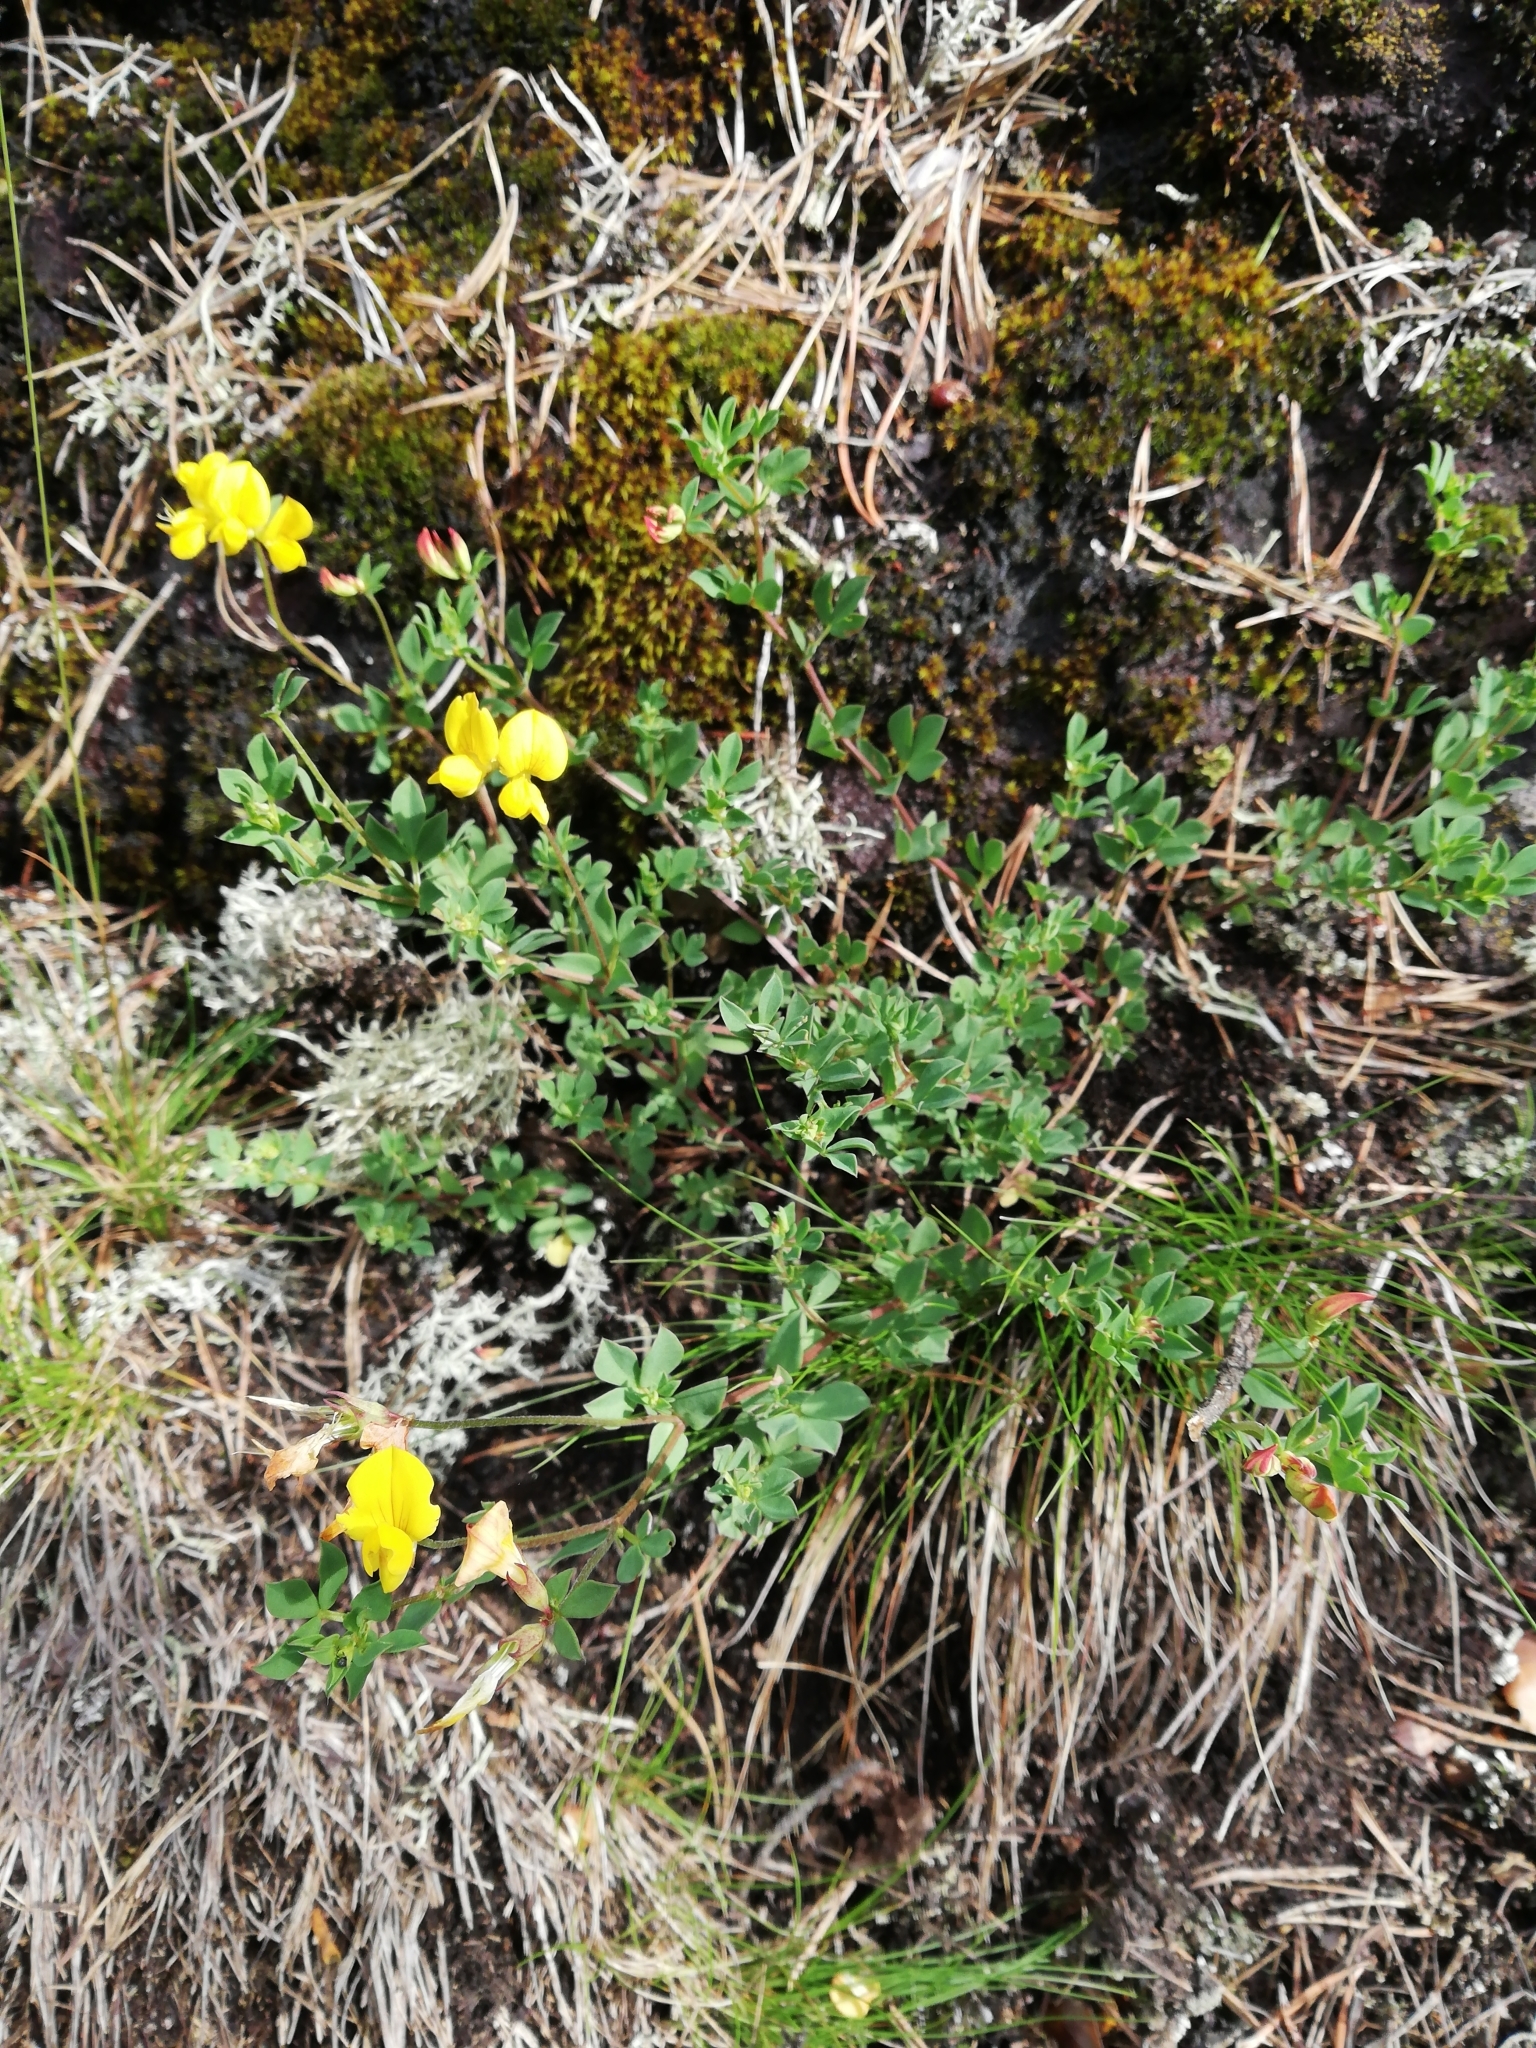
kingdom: Plantae
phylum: Tracheophyta
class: Magnoliopsida
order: Fabales
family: Fabaceae
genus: Lotus
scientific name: Lotus corniculatus
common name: Common bird's-foot-trefoil
